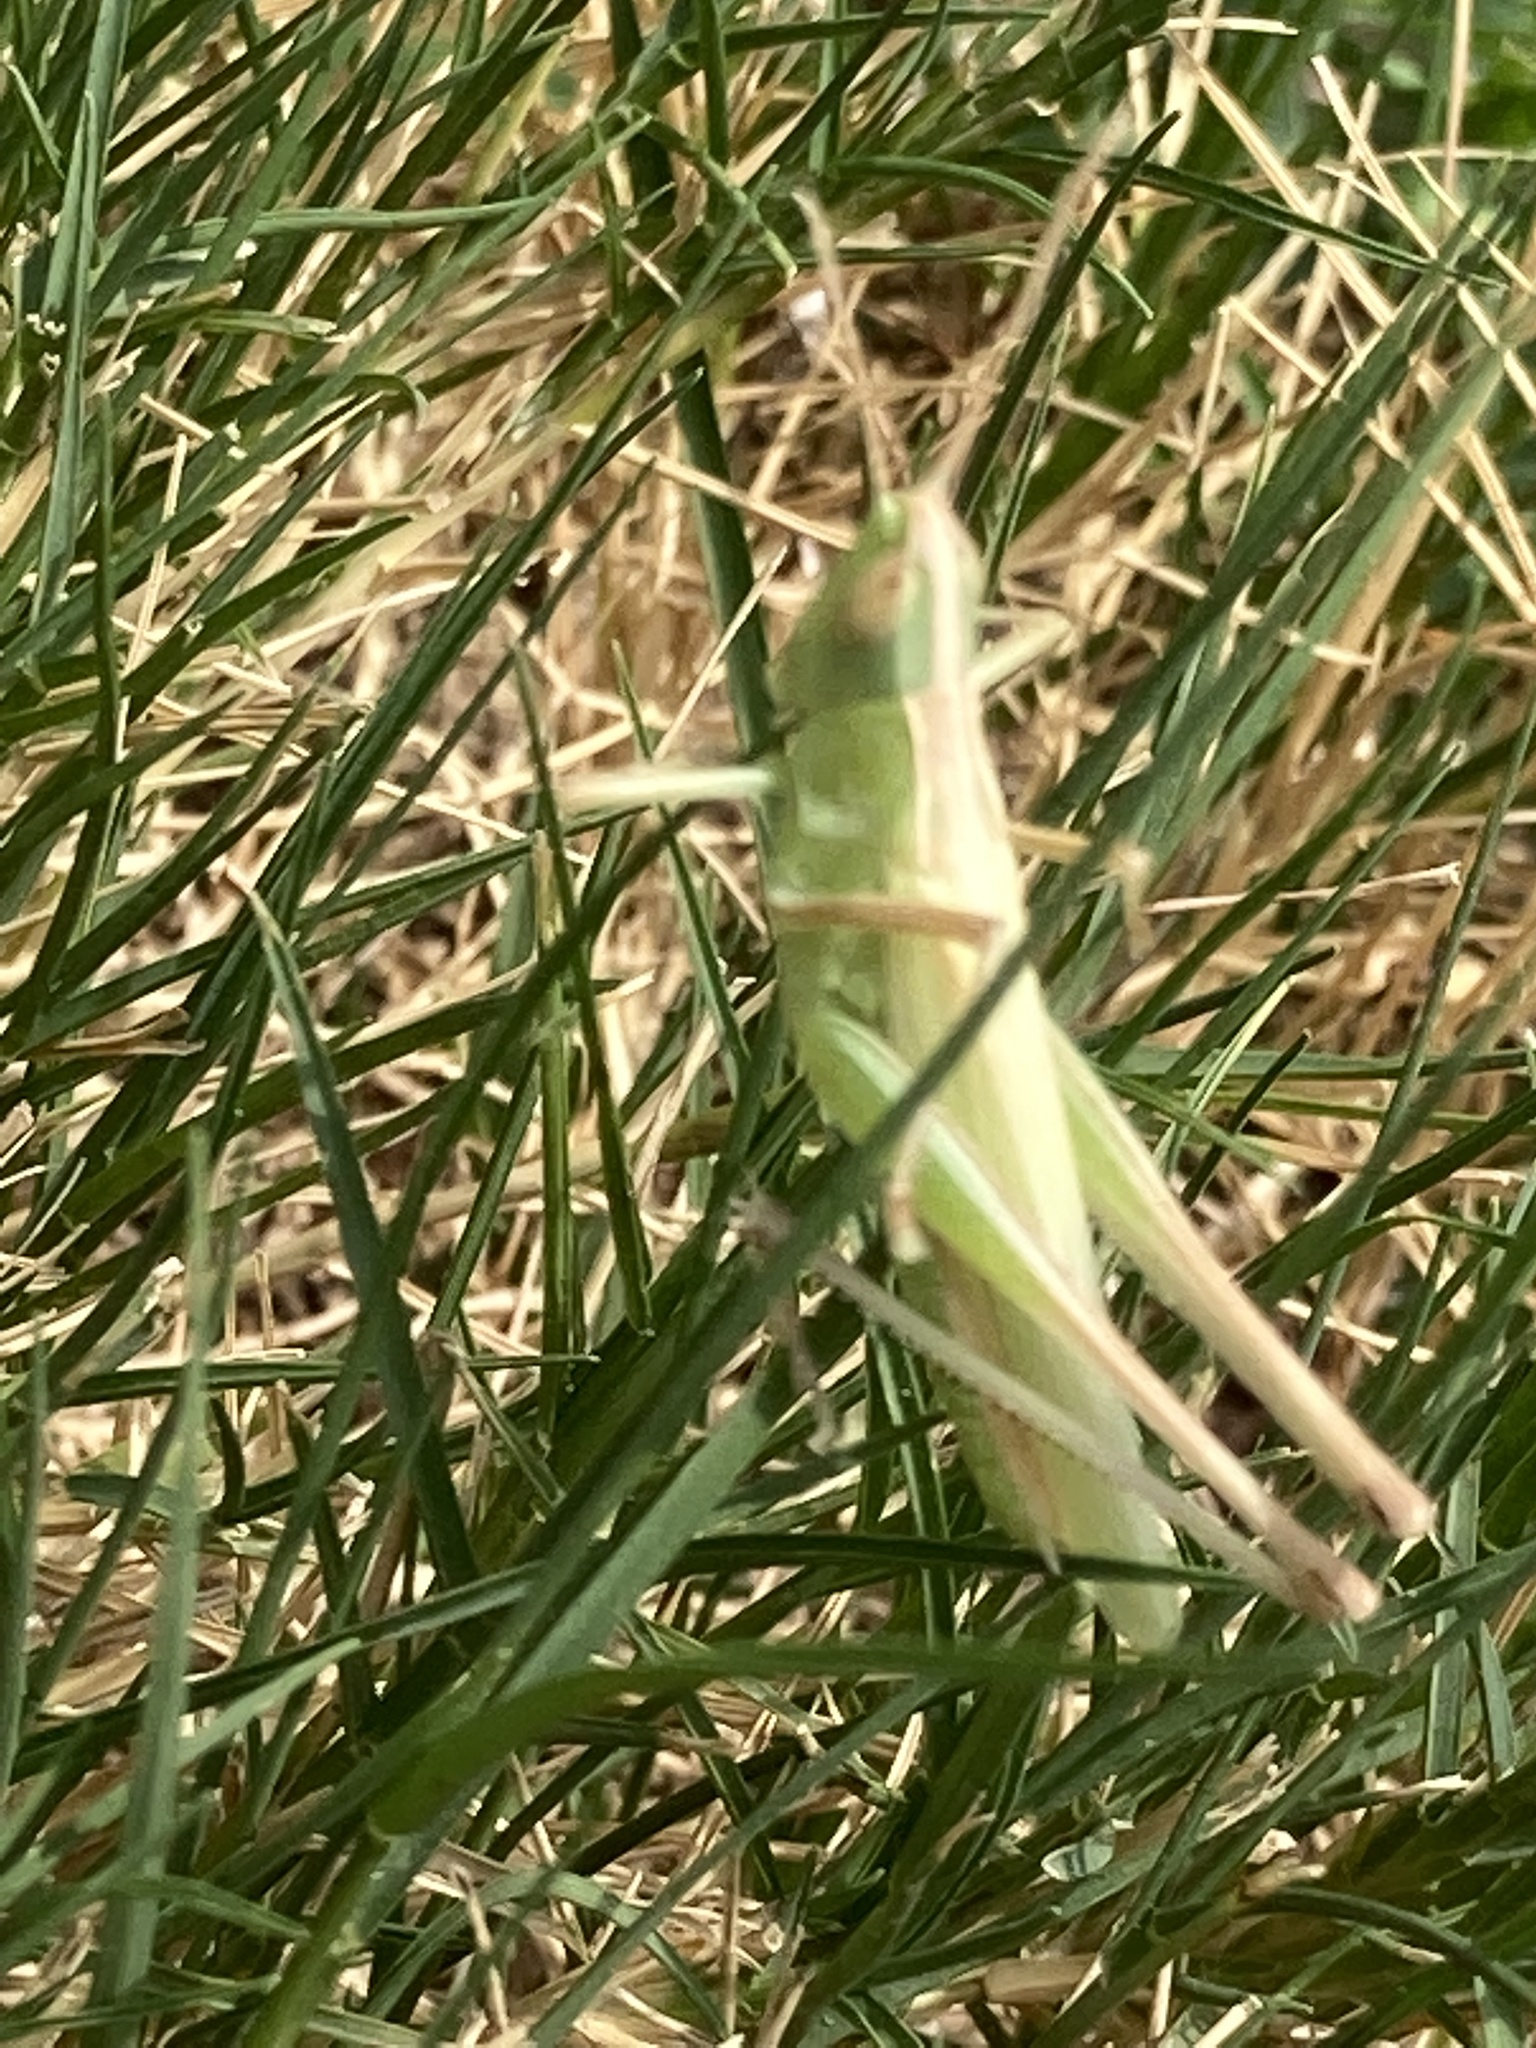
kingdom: Animalia
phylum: Arthropoda
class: Insecta
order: Orthoptera
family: Acrididae
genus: Syrbula
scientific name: Syrbula admirabilis
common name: Handsome grasshopper
